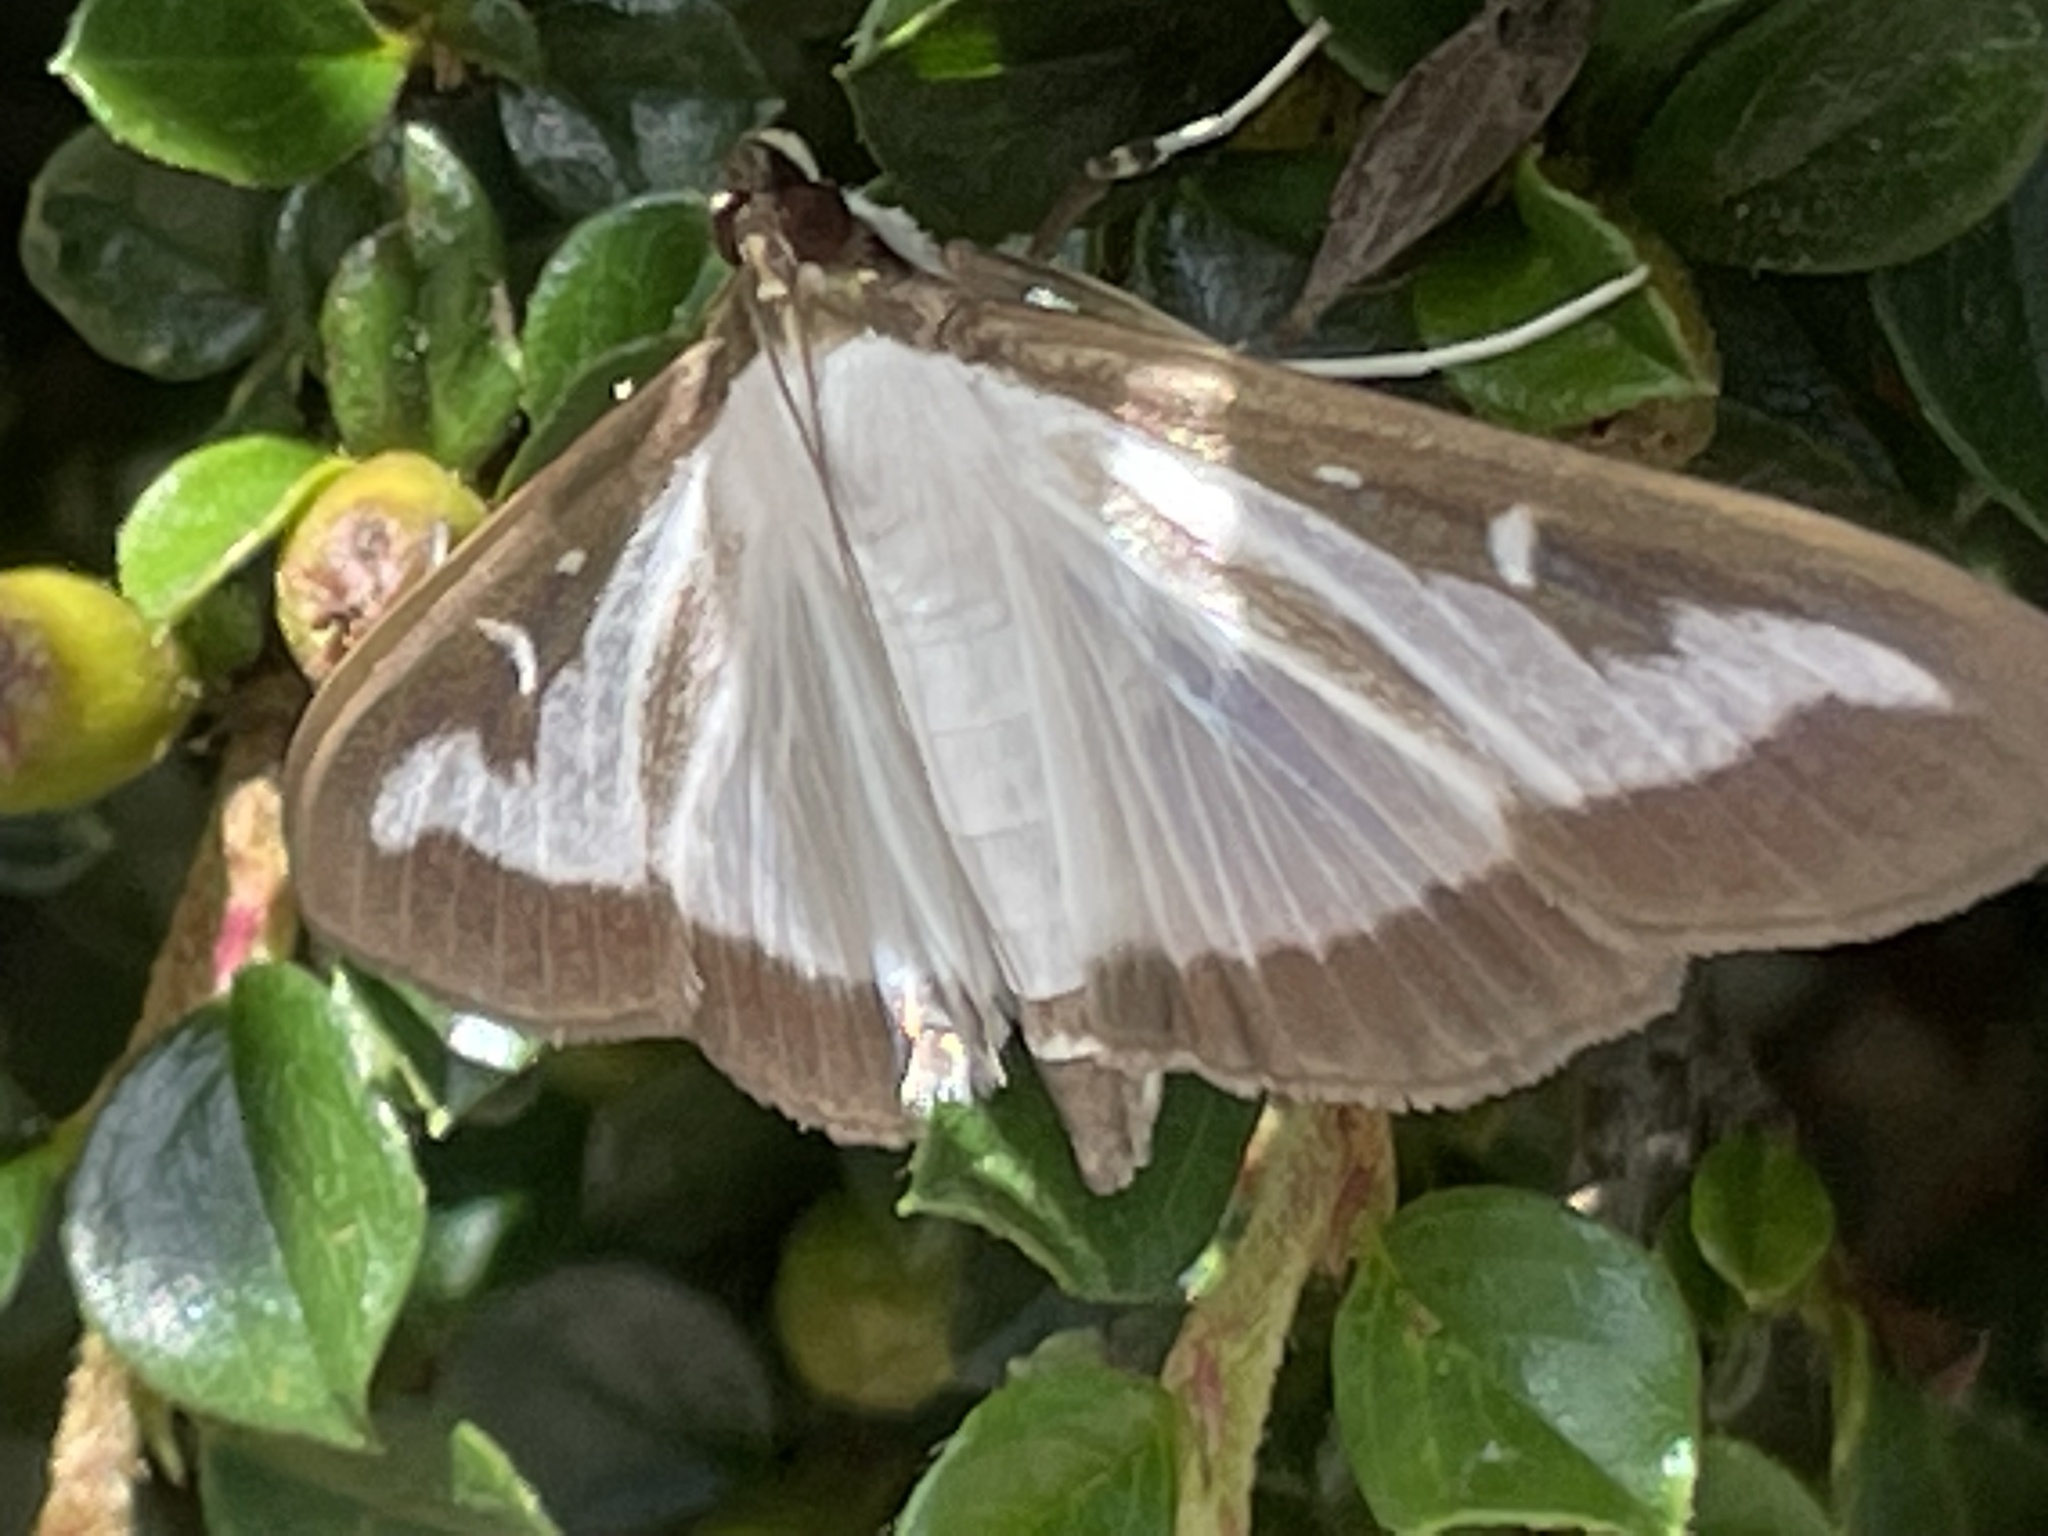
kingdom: Animalia
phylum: Arthropoda
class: Insecta
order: Lepidoptera
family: Crambidae
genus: Cydalima
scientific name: Cydalima perspectalis
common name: Box tree moth
